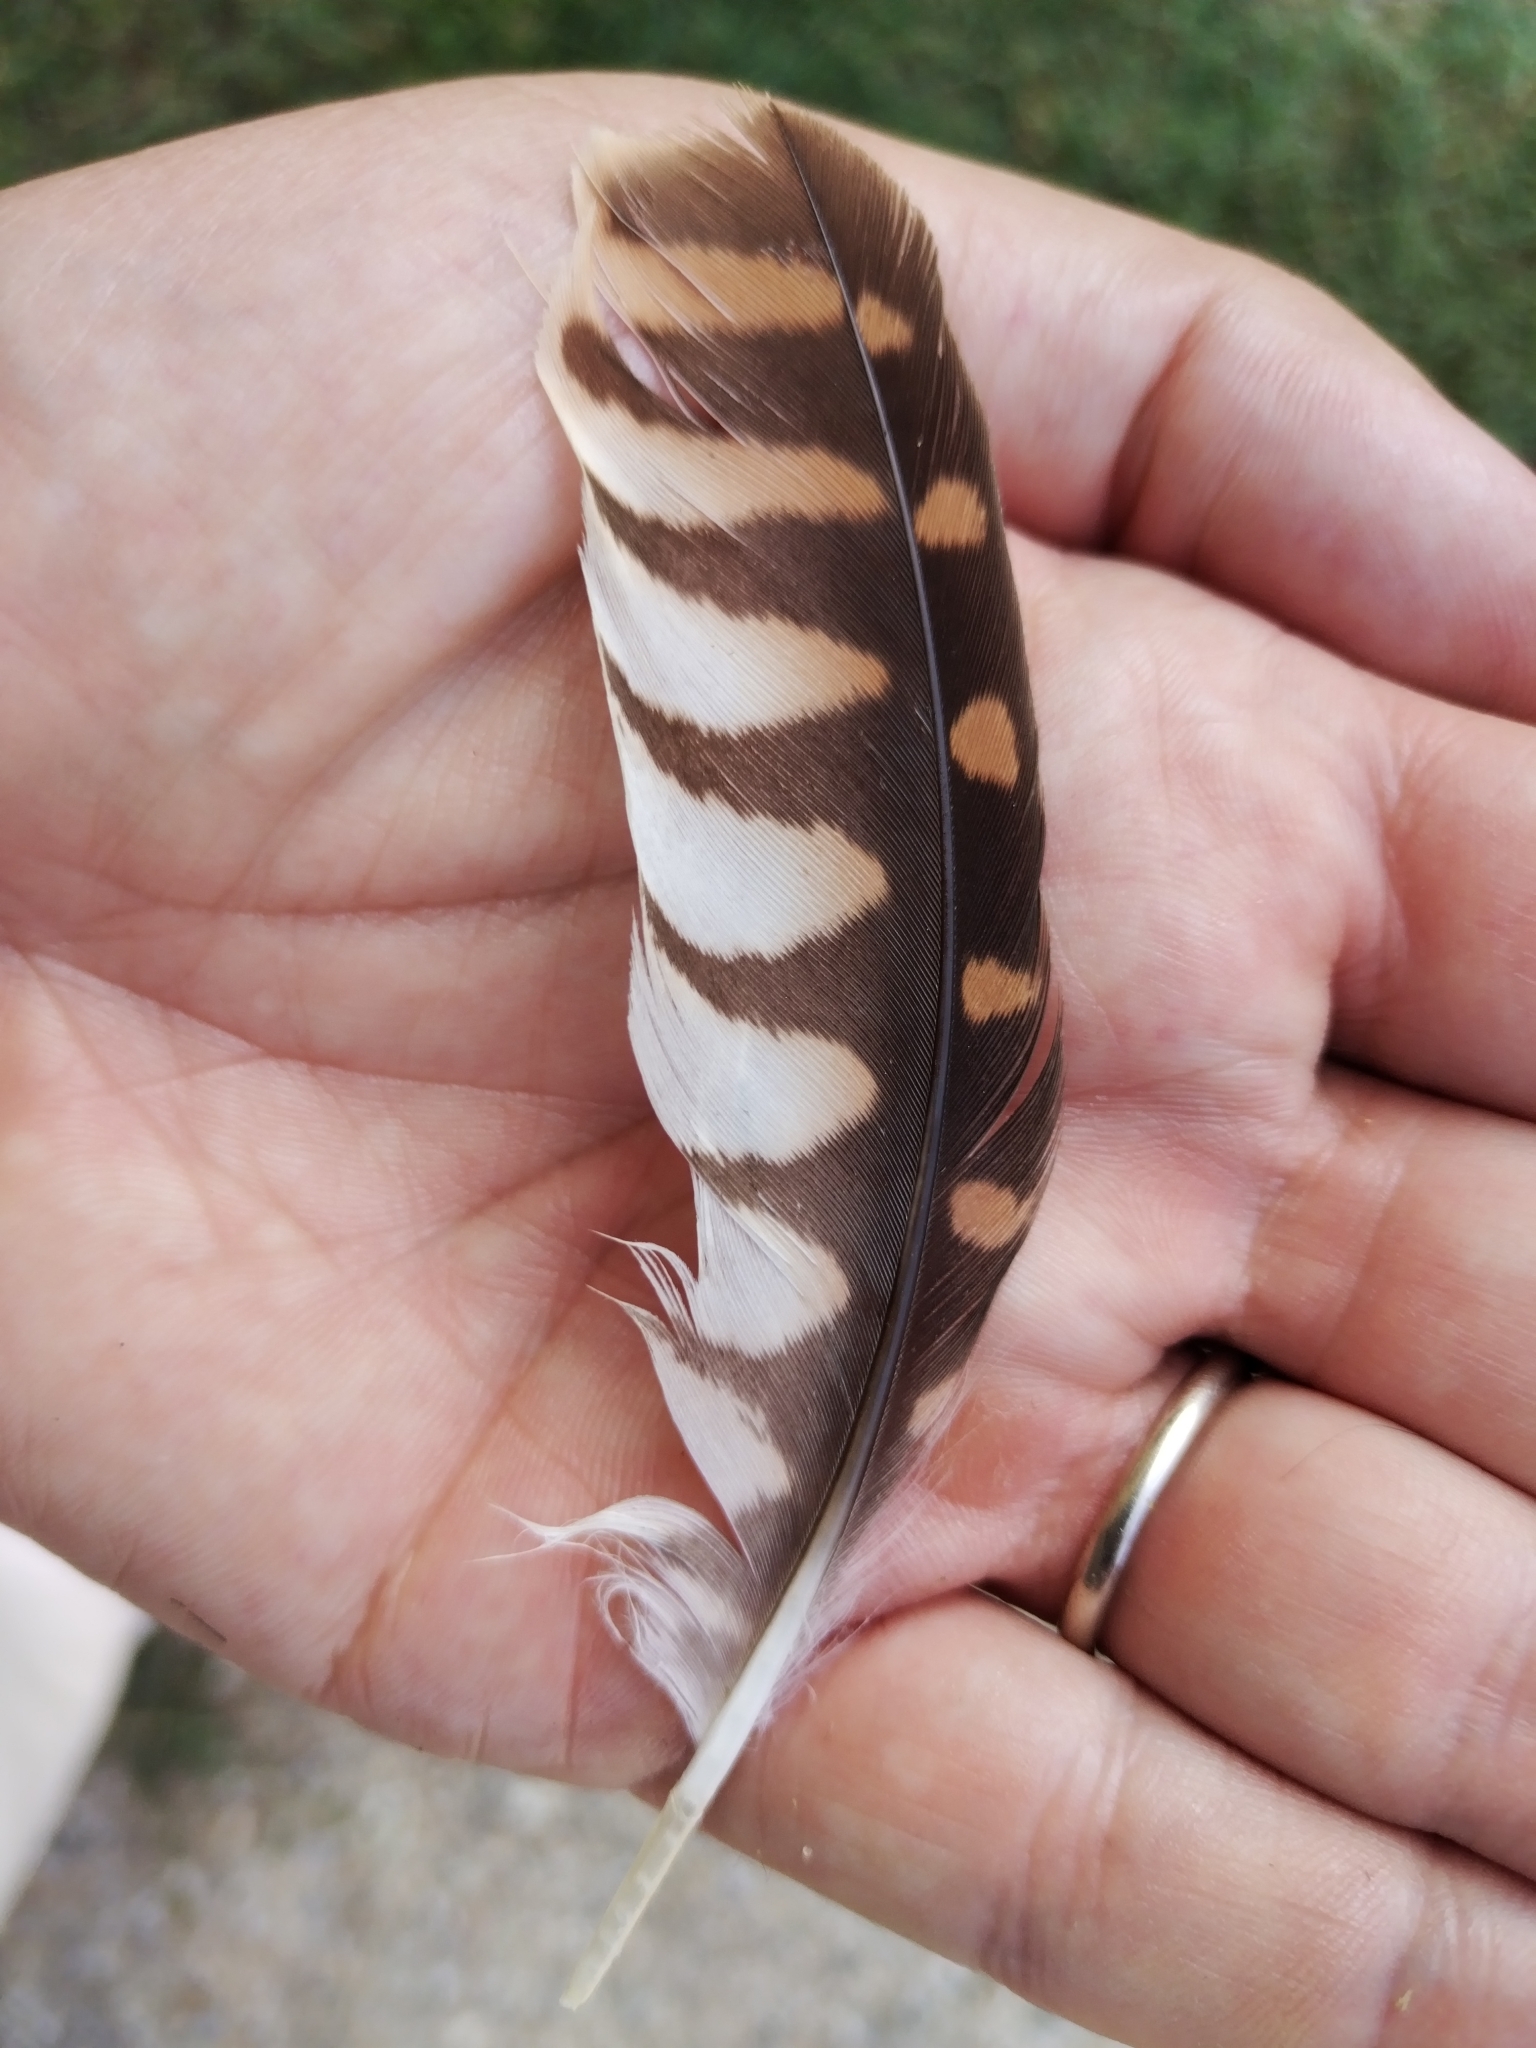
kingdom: Animalia
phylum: Chordata
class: Aves
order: Falconiformes
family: Falconidae
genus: Falco
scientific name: Falco tinnunculus
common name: Common kestrel
